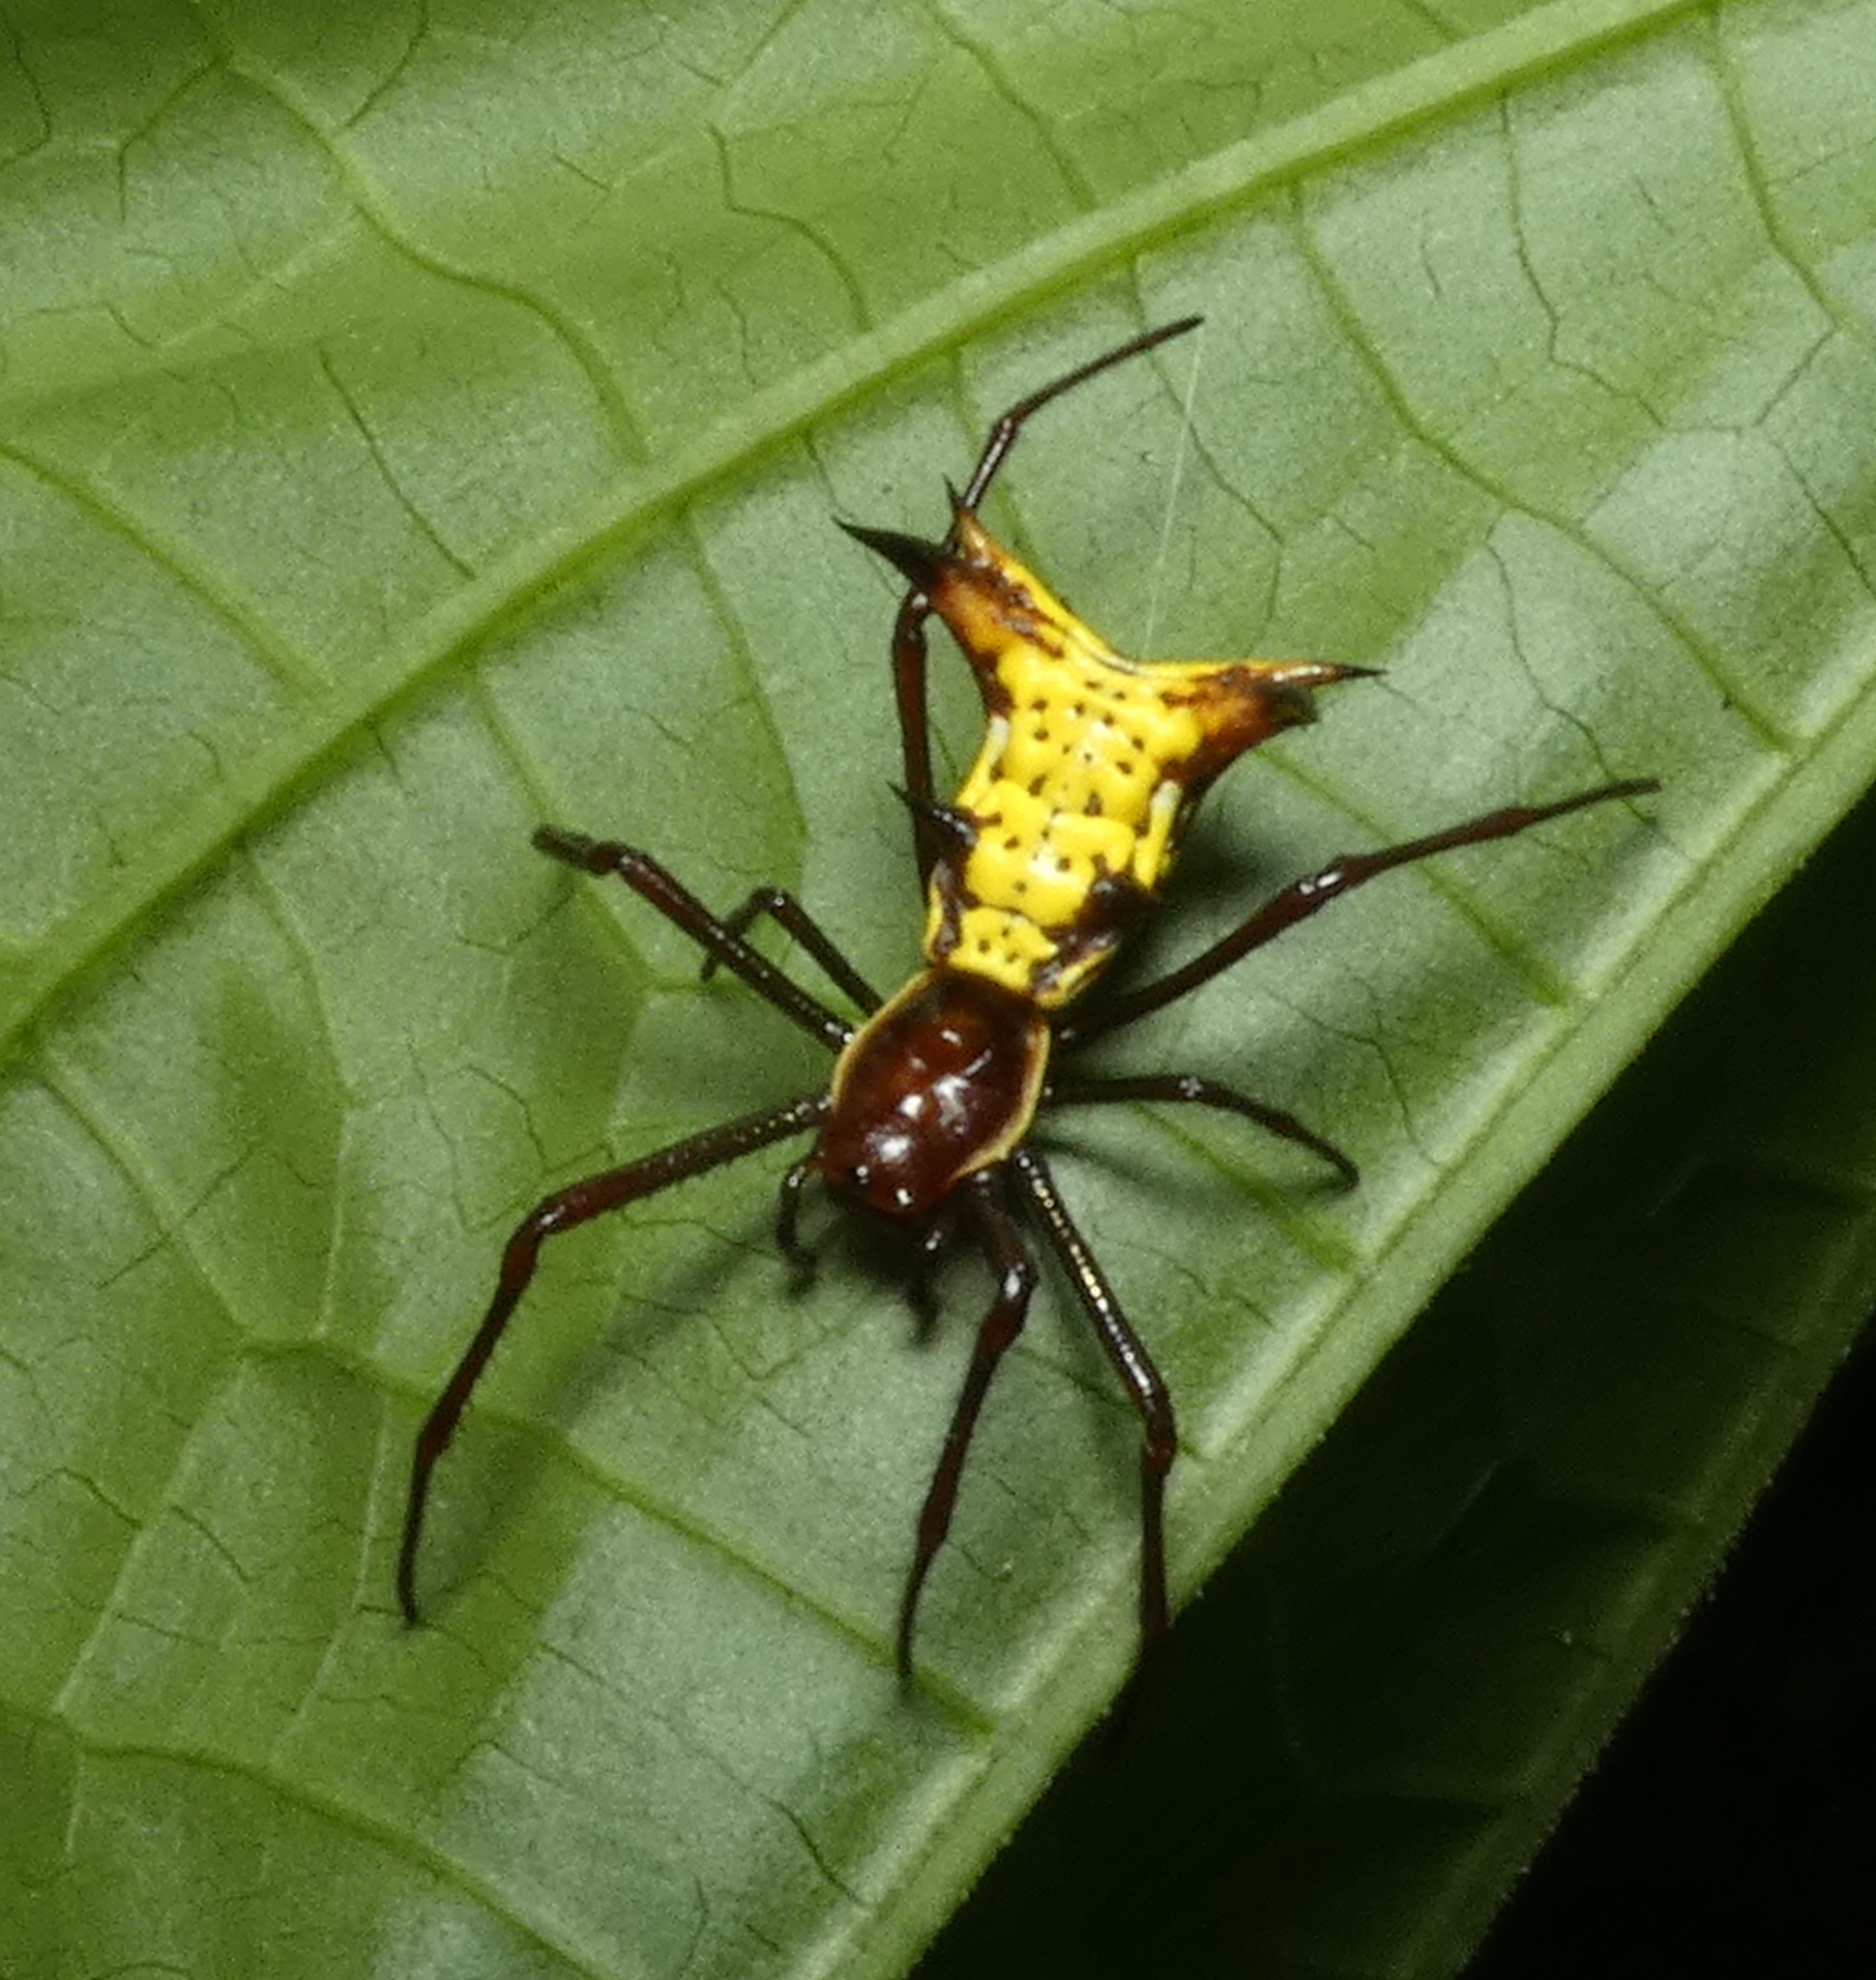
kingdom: Animalia
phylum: Arthropoda
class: Arachnida
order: Araneae
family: Araneidae
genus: Micrathena
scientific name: Micrathena fissispina
